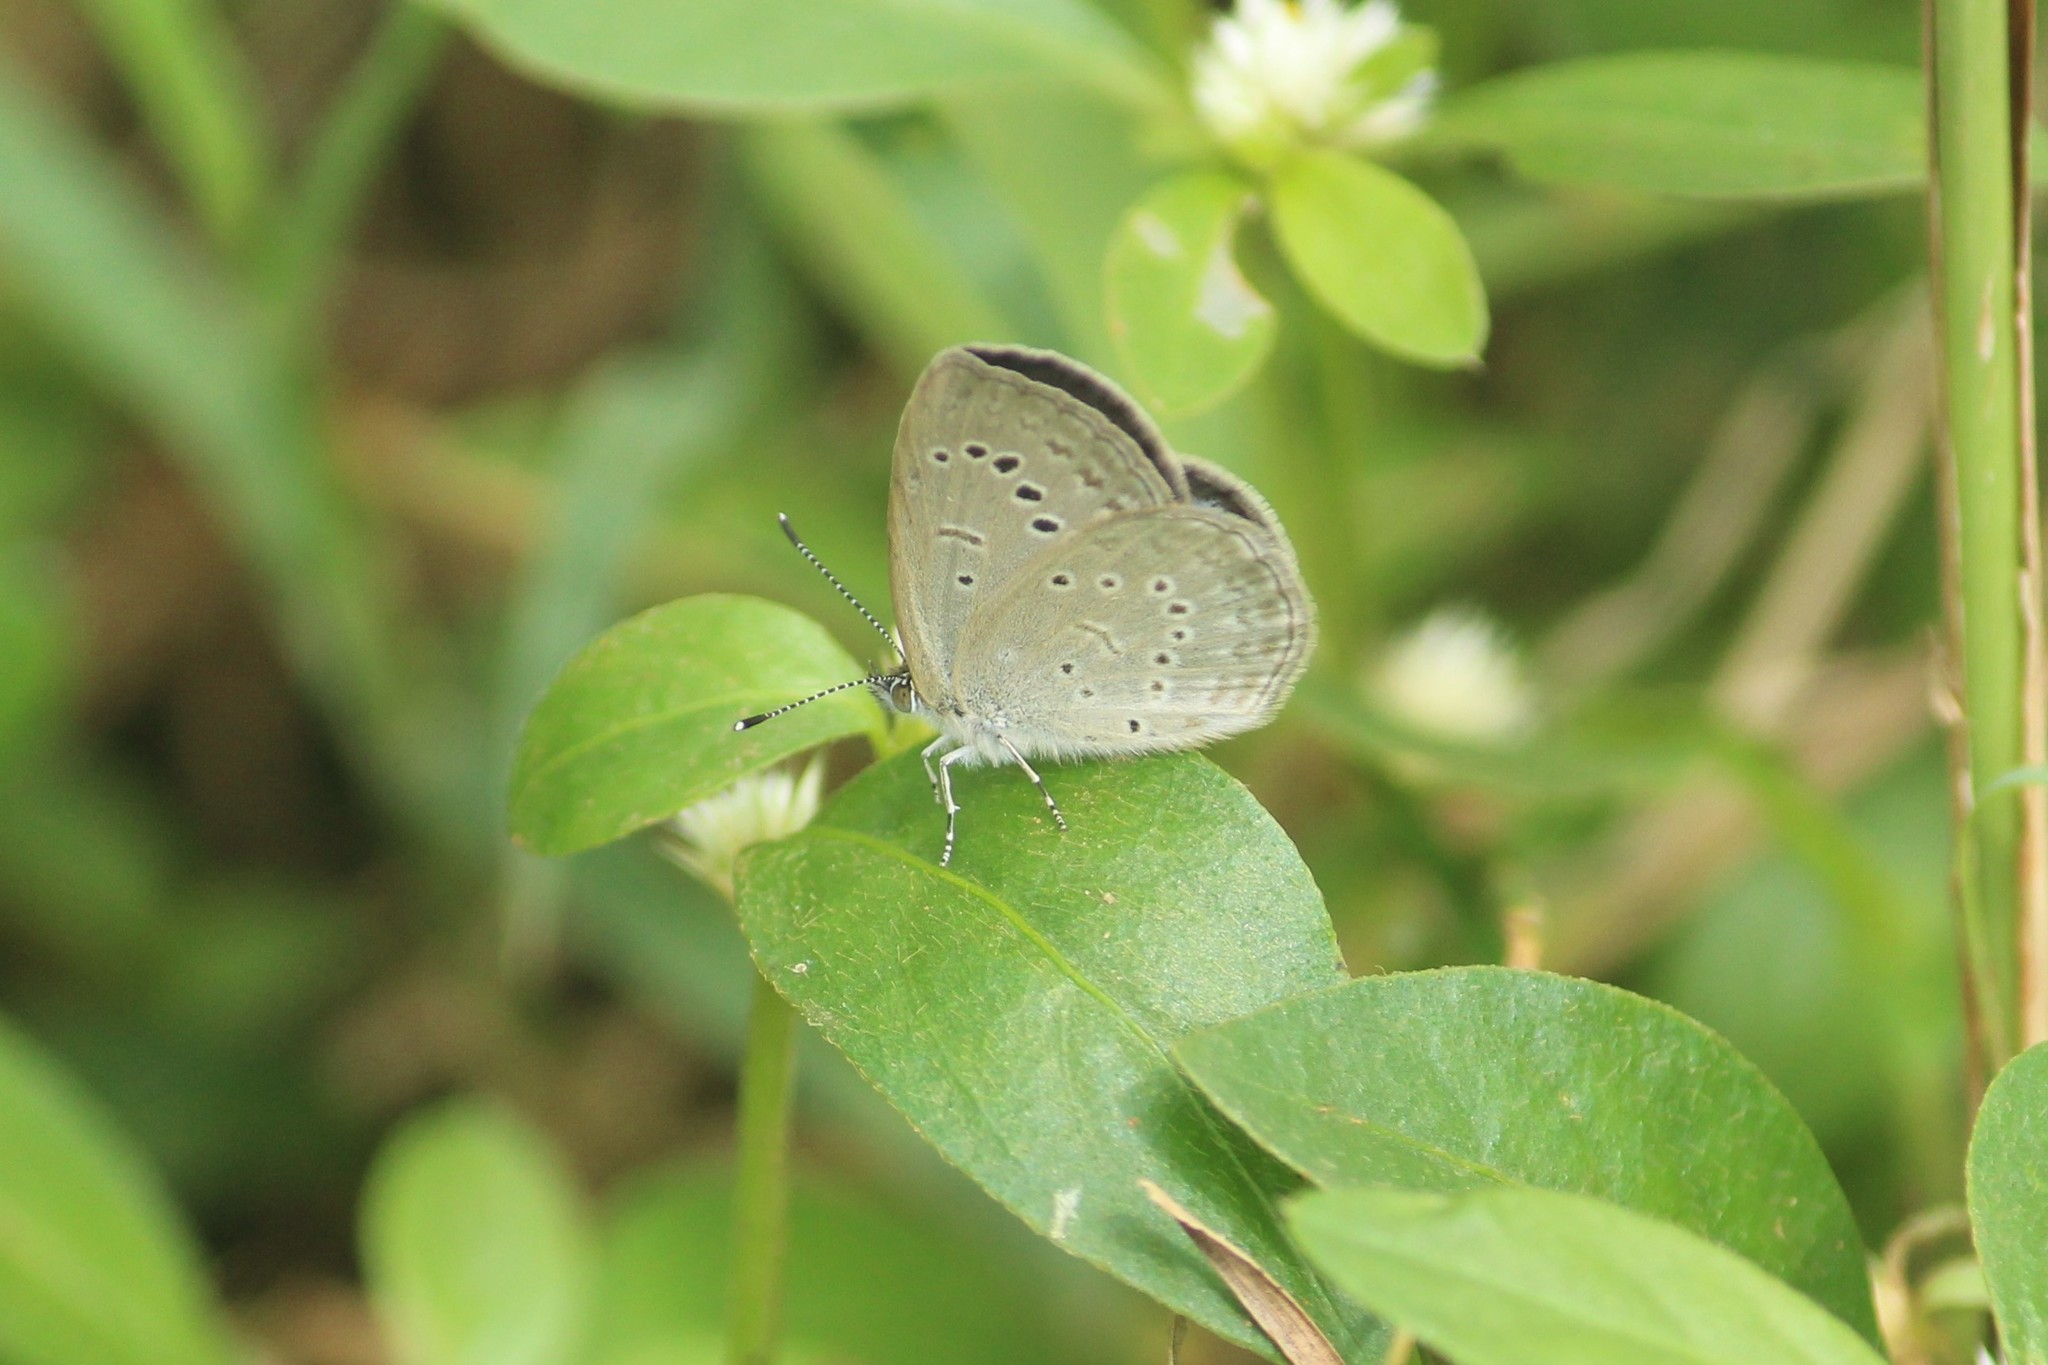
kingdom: Animalia
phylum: Arthropoda
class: Insecta
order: Lepidoptera
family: Lycaenidae
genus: Pseudozizeeria
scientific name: Pseudozizeeria maha
